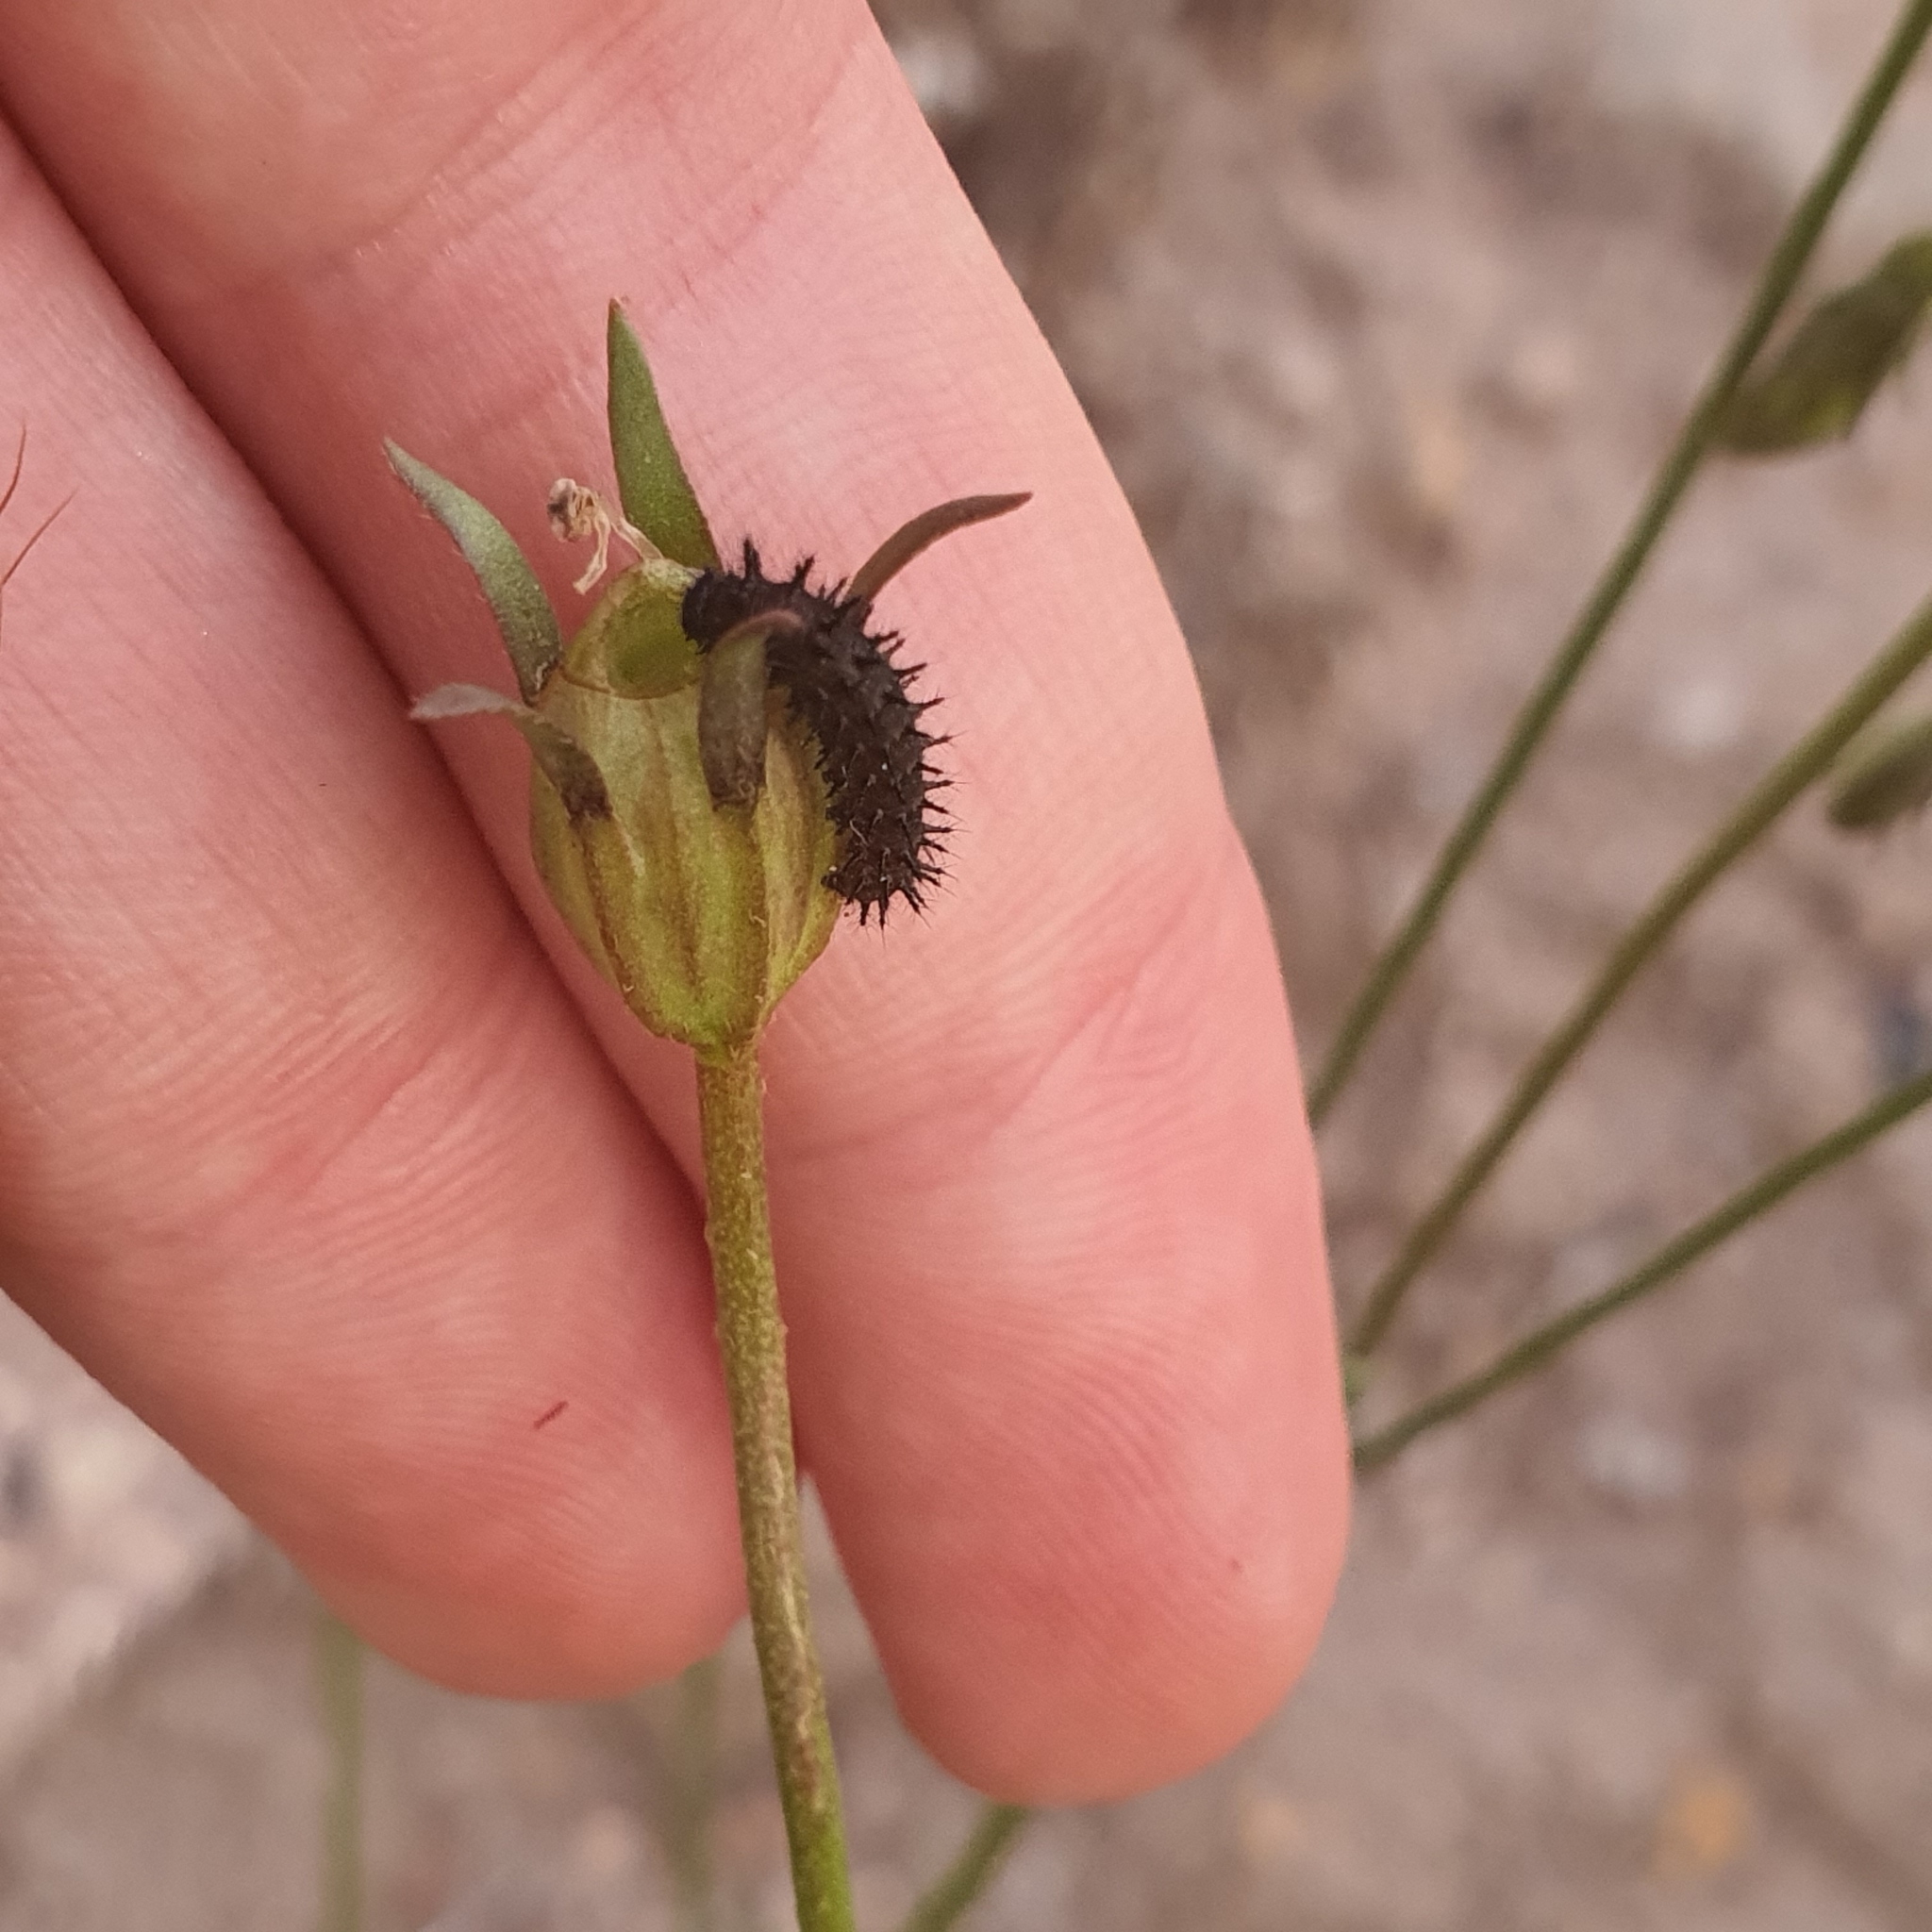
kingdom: Animalia
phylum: Arthropoda
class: Insecta
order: Lepidoptera
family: Nymphalidae
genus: Junonia
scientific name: Junonia villida
